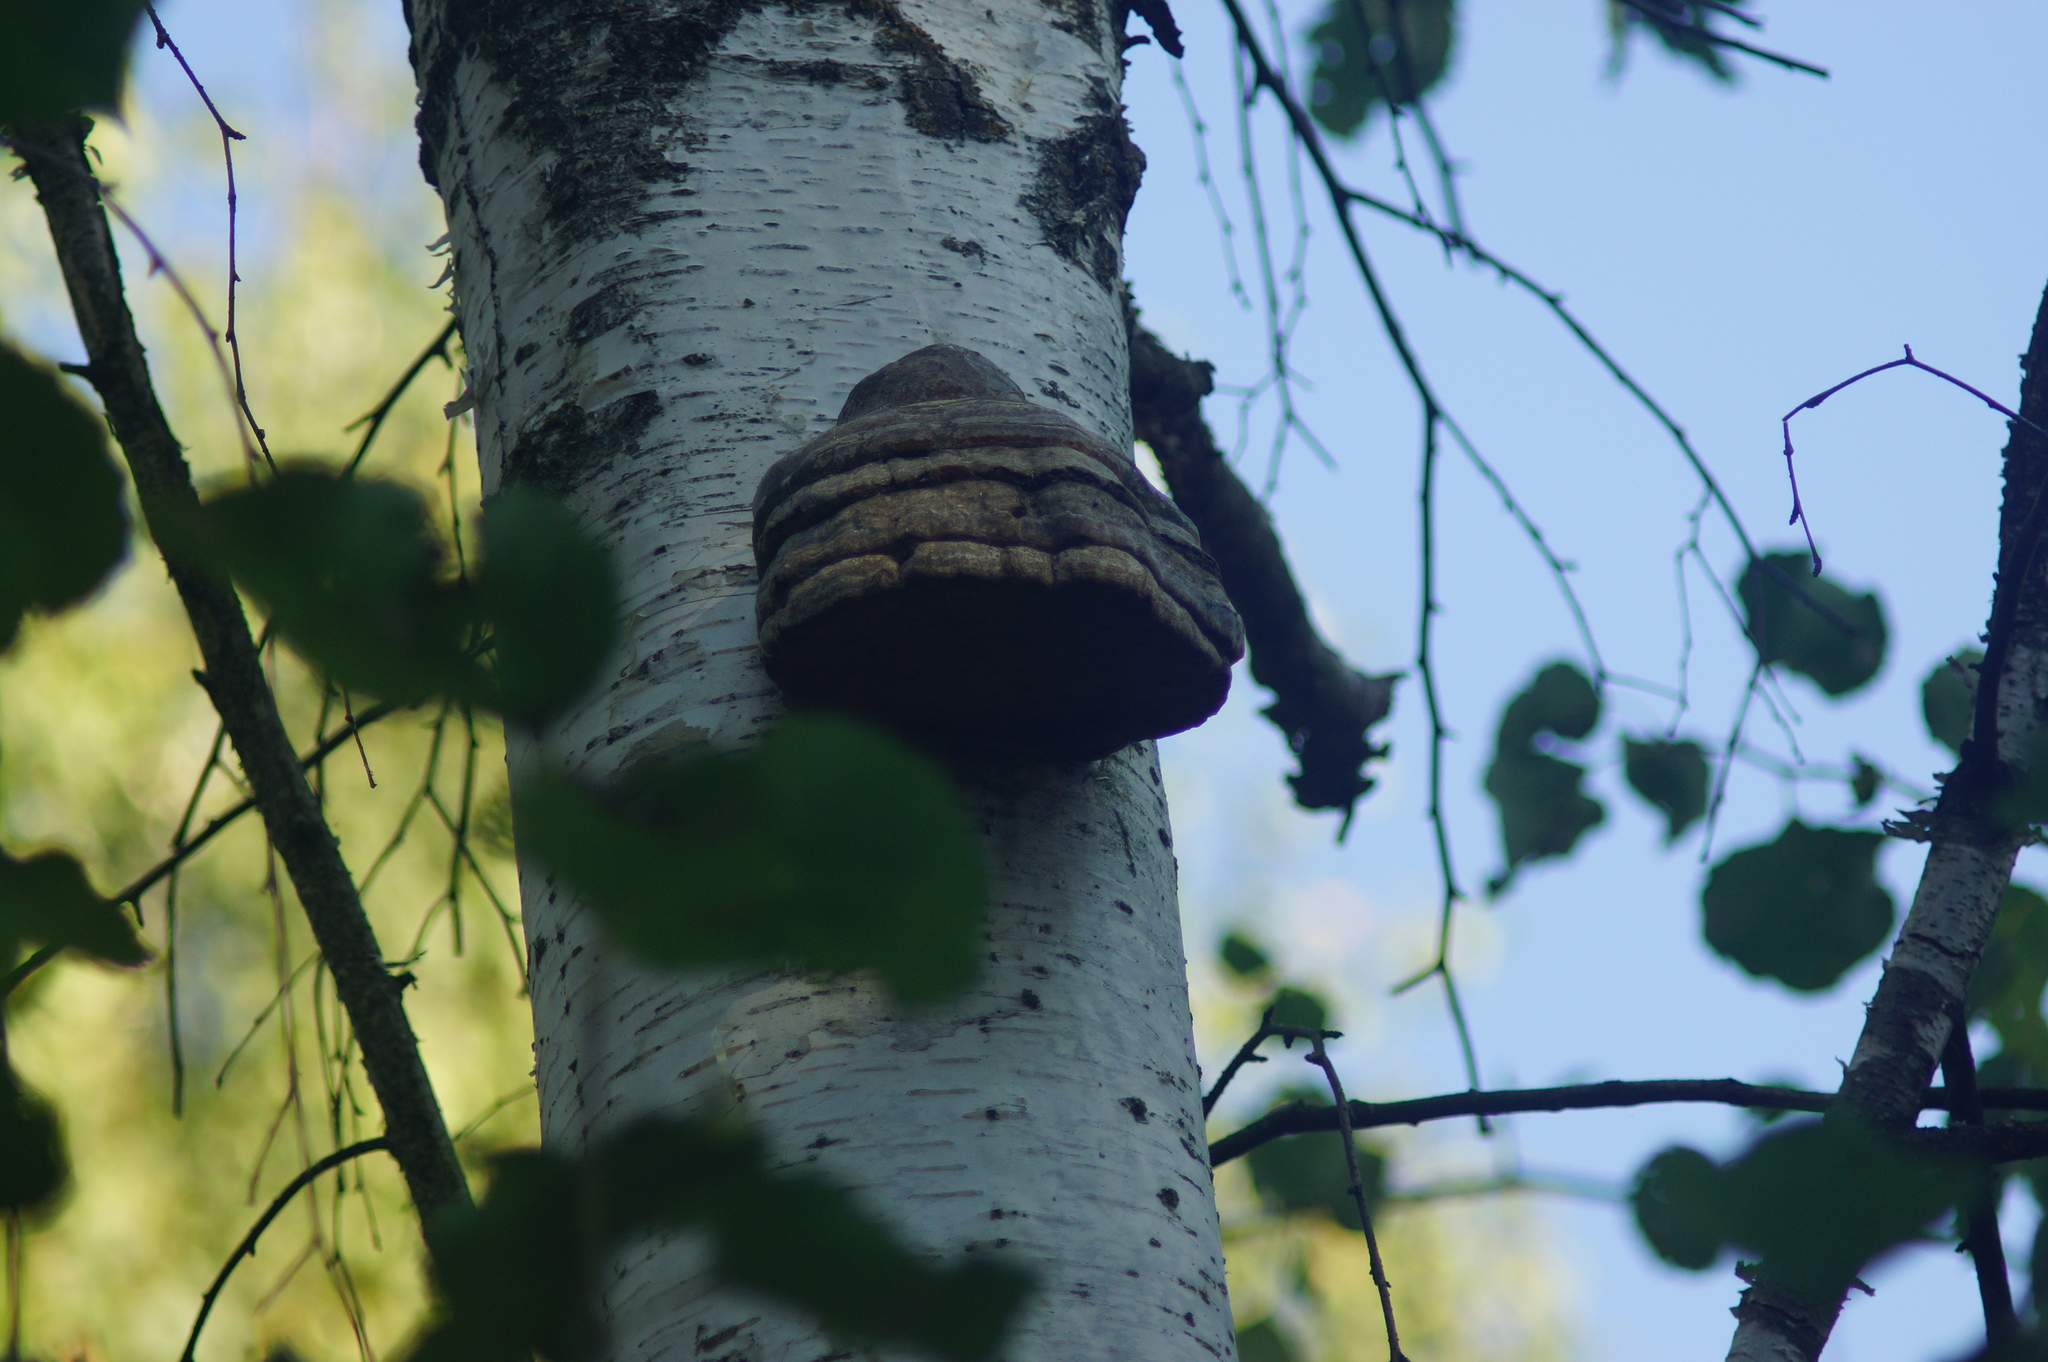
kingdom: Fungi
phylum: Basidiomycota
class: Agaricomycetes
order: Polyporales
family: Polyporaceae
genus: Fomes
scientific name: Fomes fomentarius
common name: Hoof fungus
